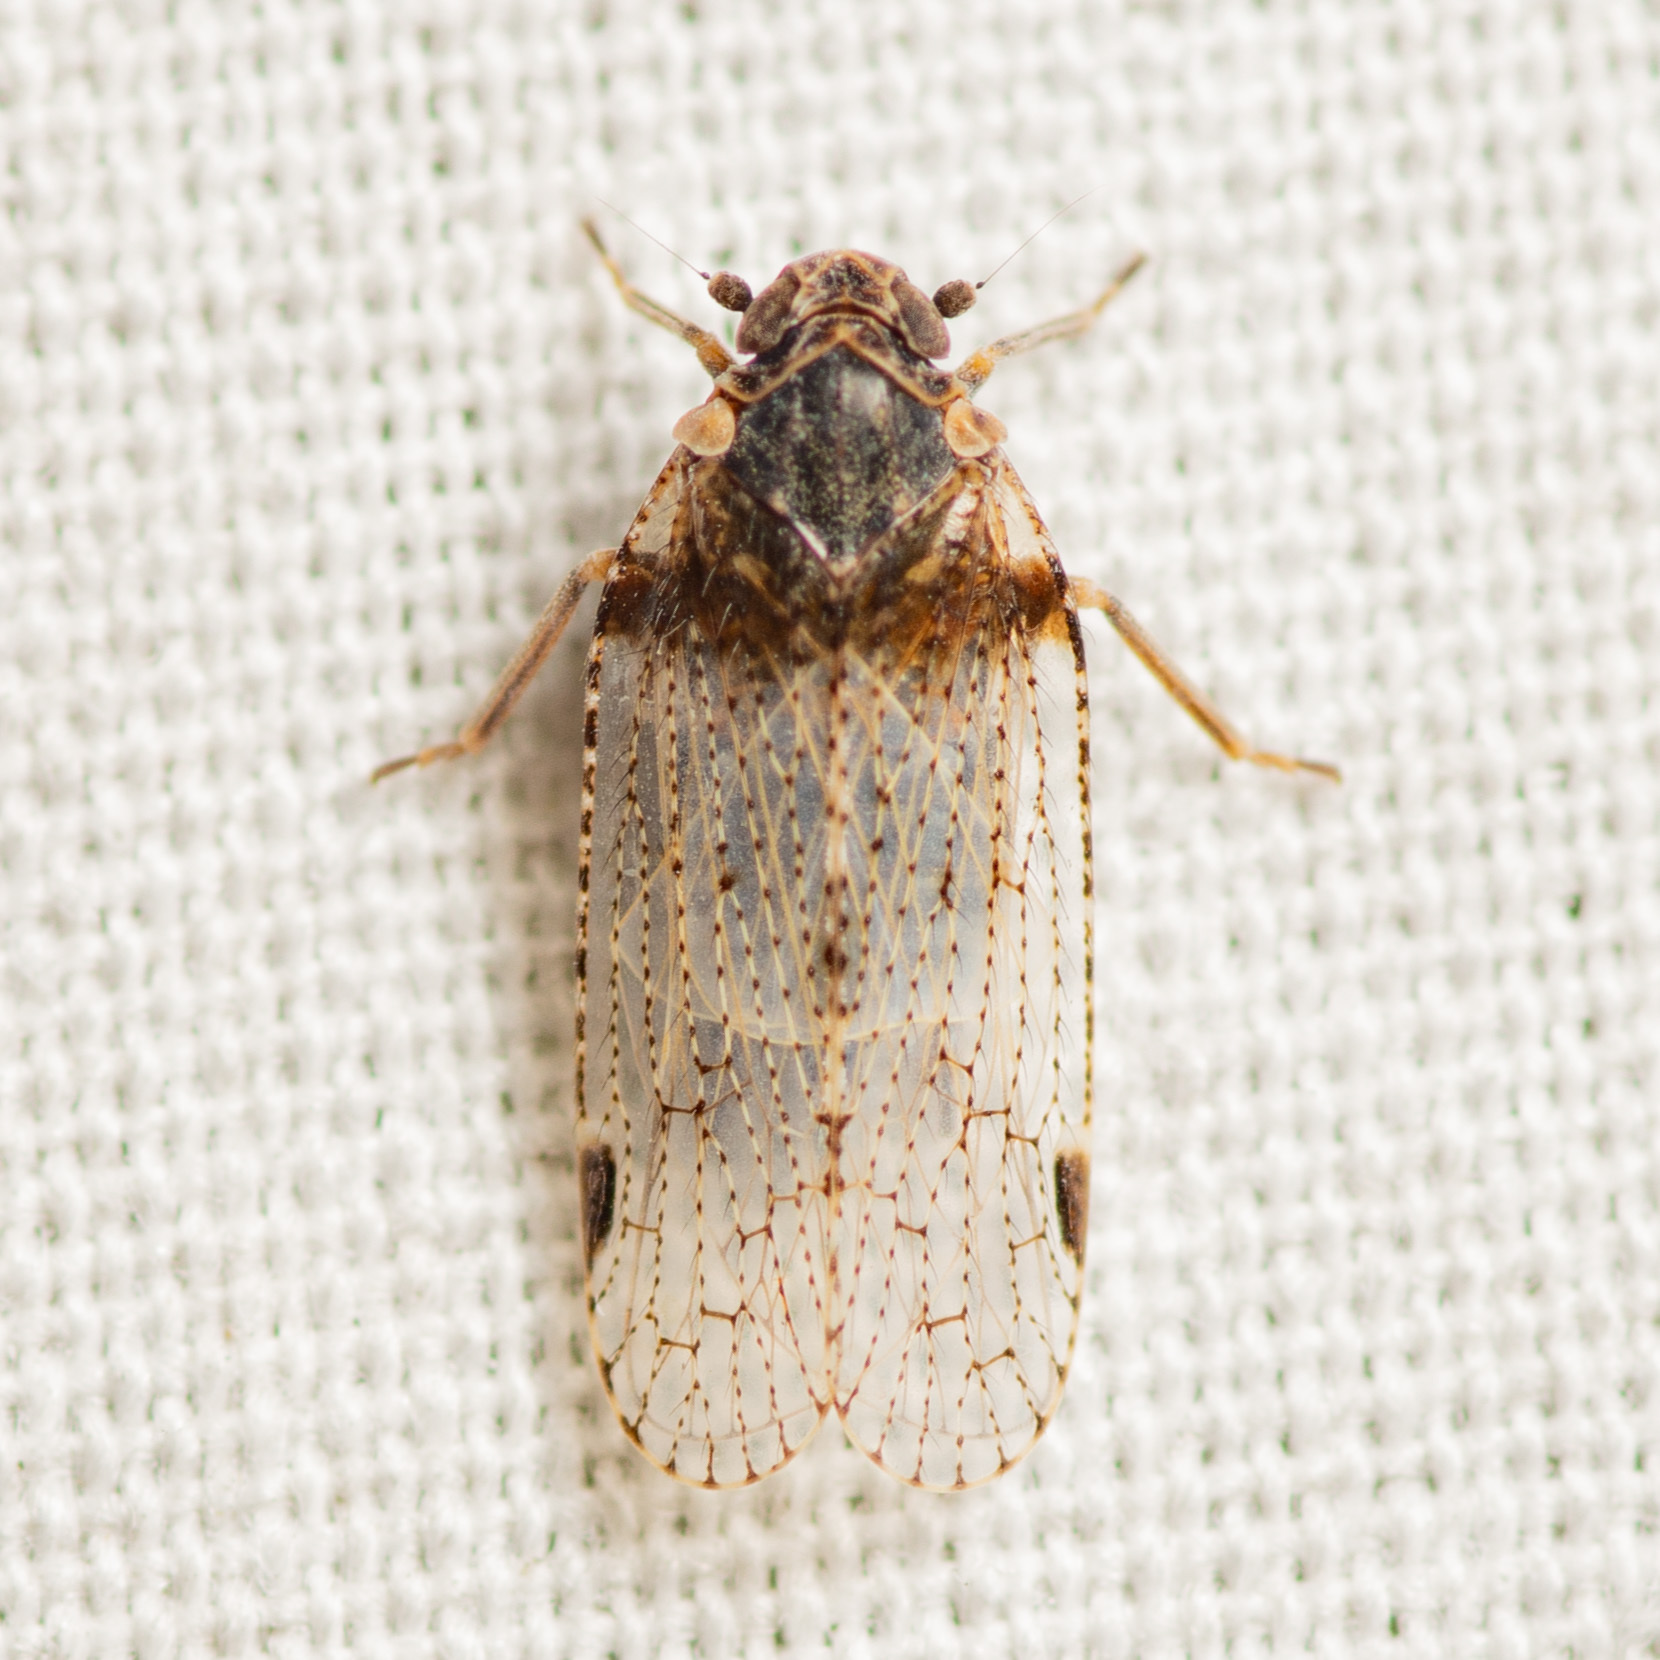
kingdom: Animalia
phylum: Arthropoda
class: Insecta
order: Hemiptera
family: Cixiidae
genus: Cixius
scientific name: Cixius stigmatus
